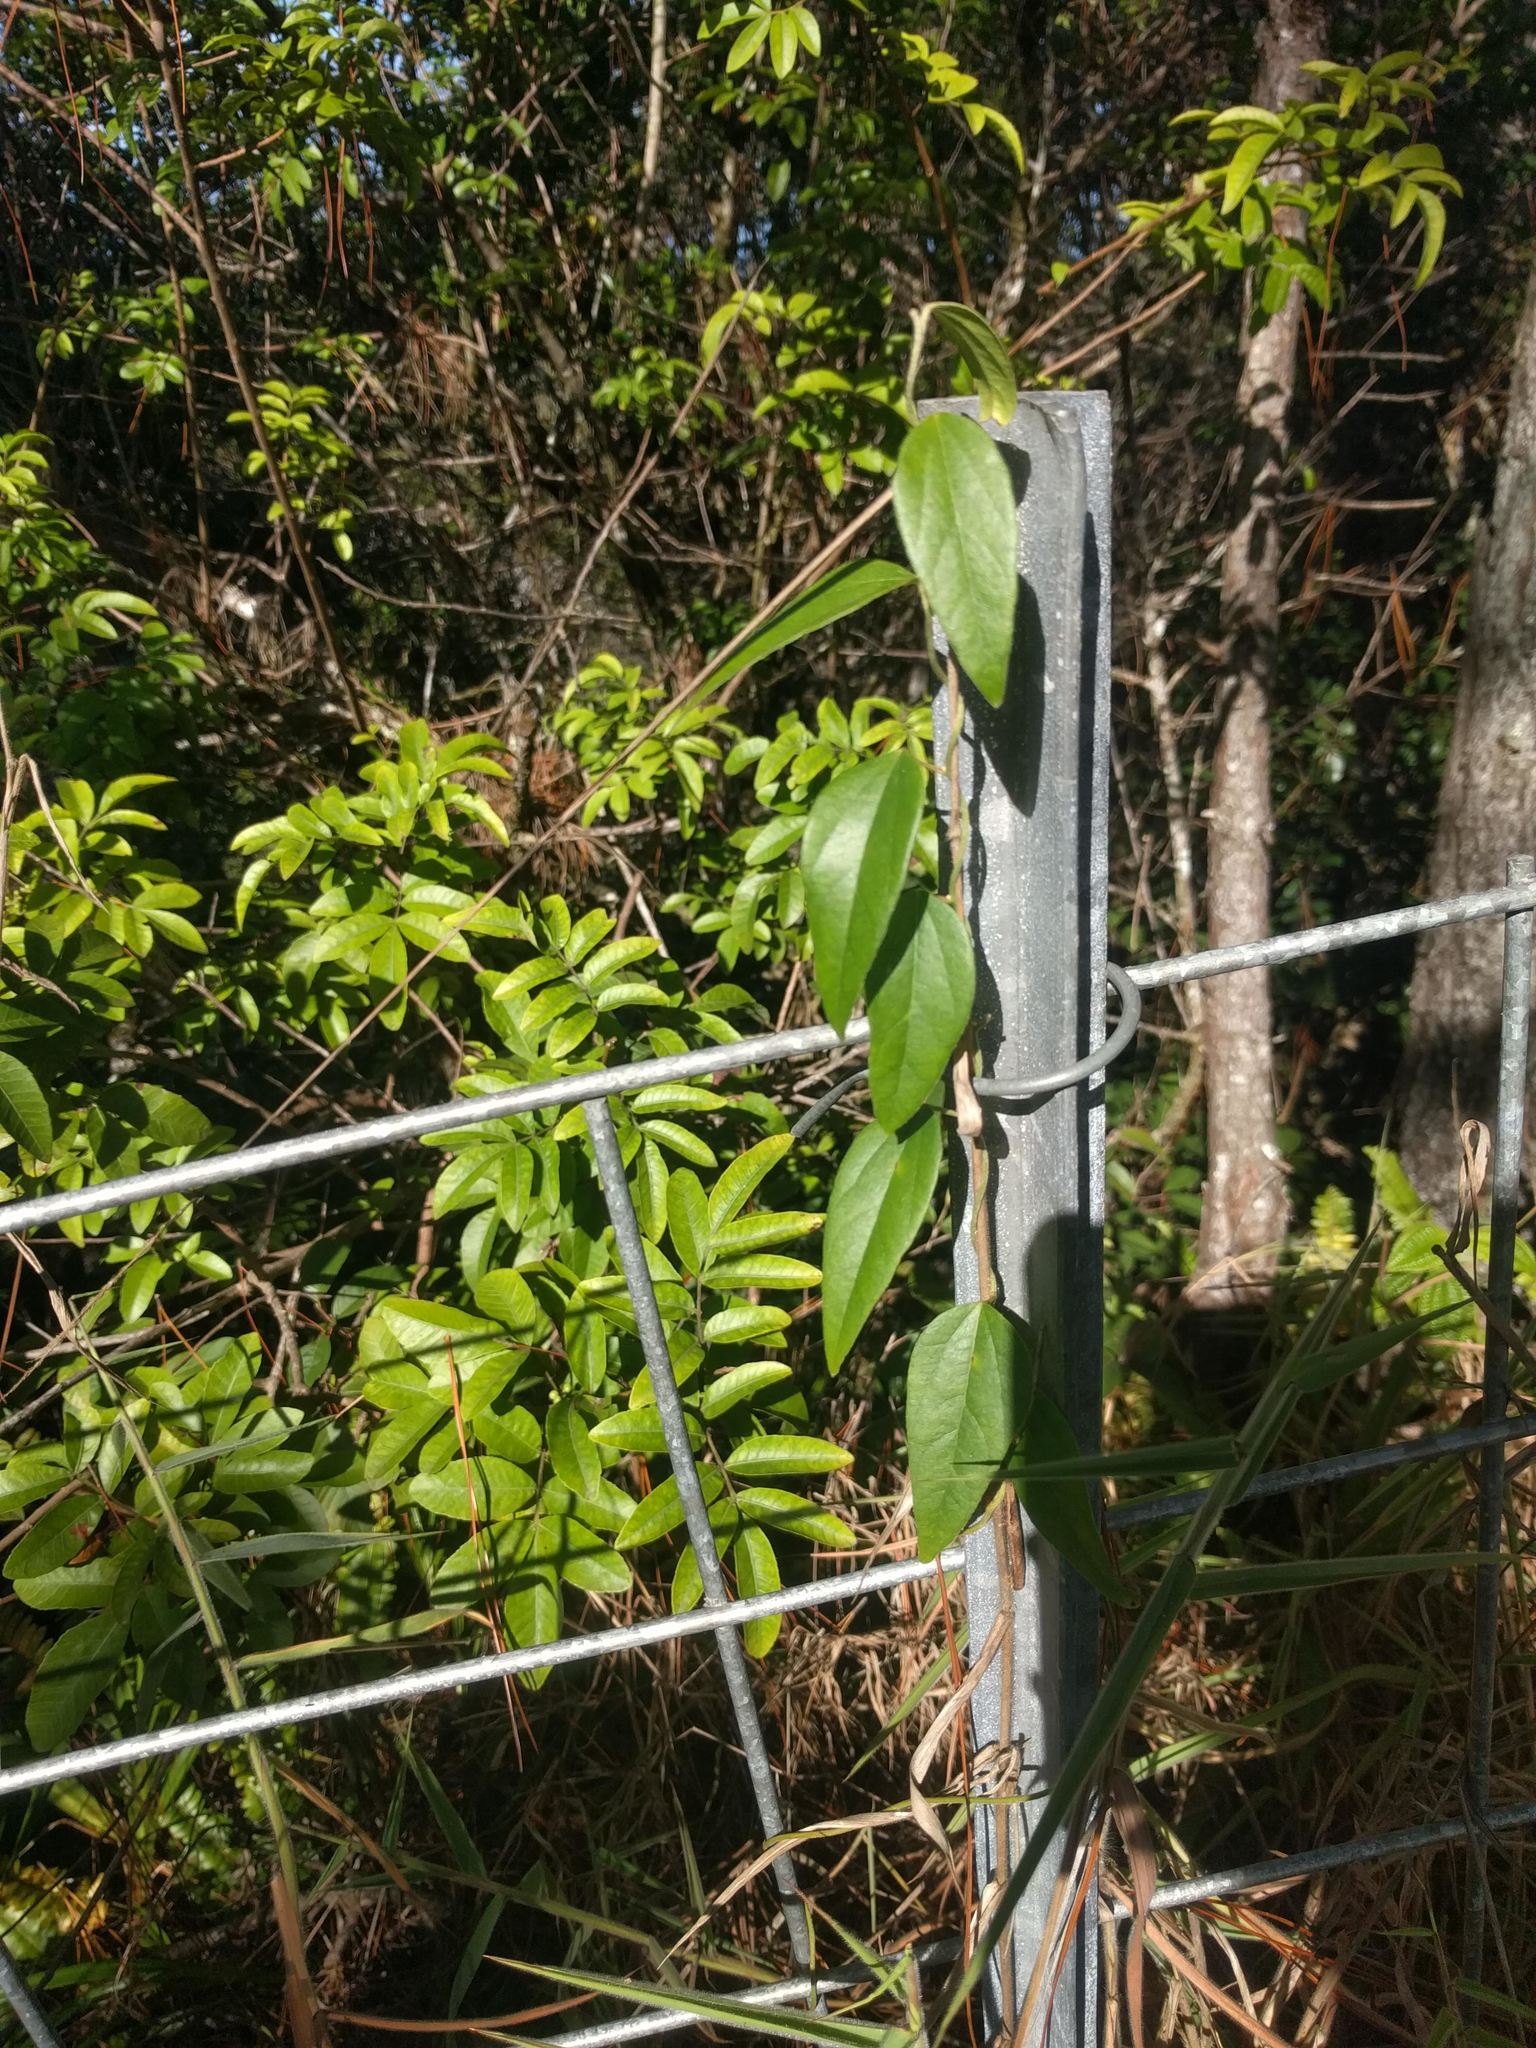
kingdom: Plantae
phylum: Tracheophyta
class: Magnoliopsida
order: Malpighiales
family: Passifloraceae
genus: Passiflora
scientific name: Passiflora pallida
